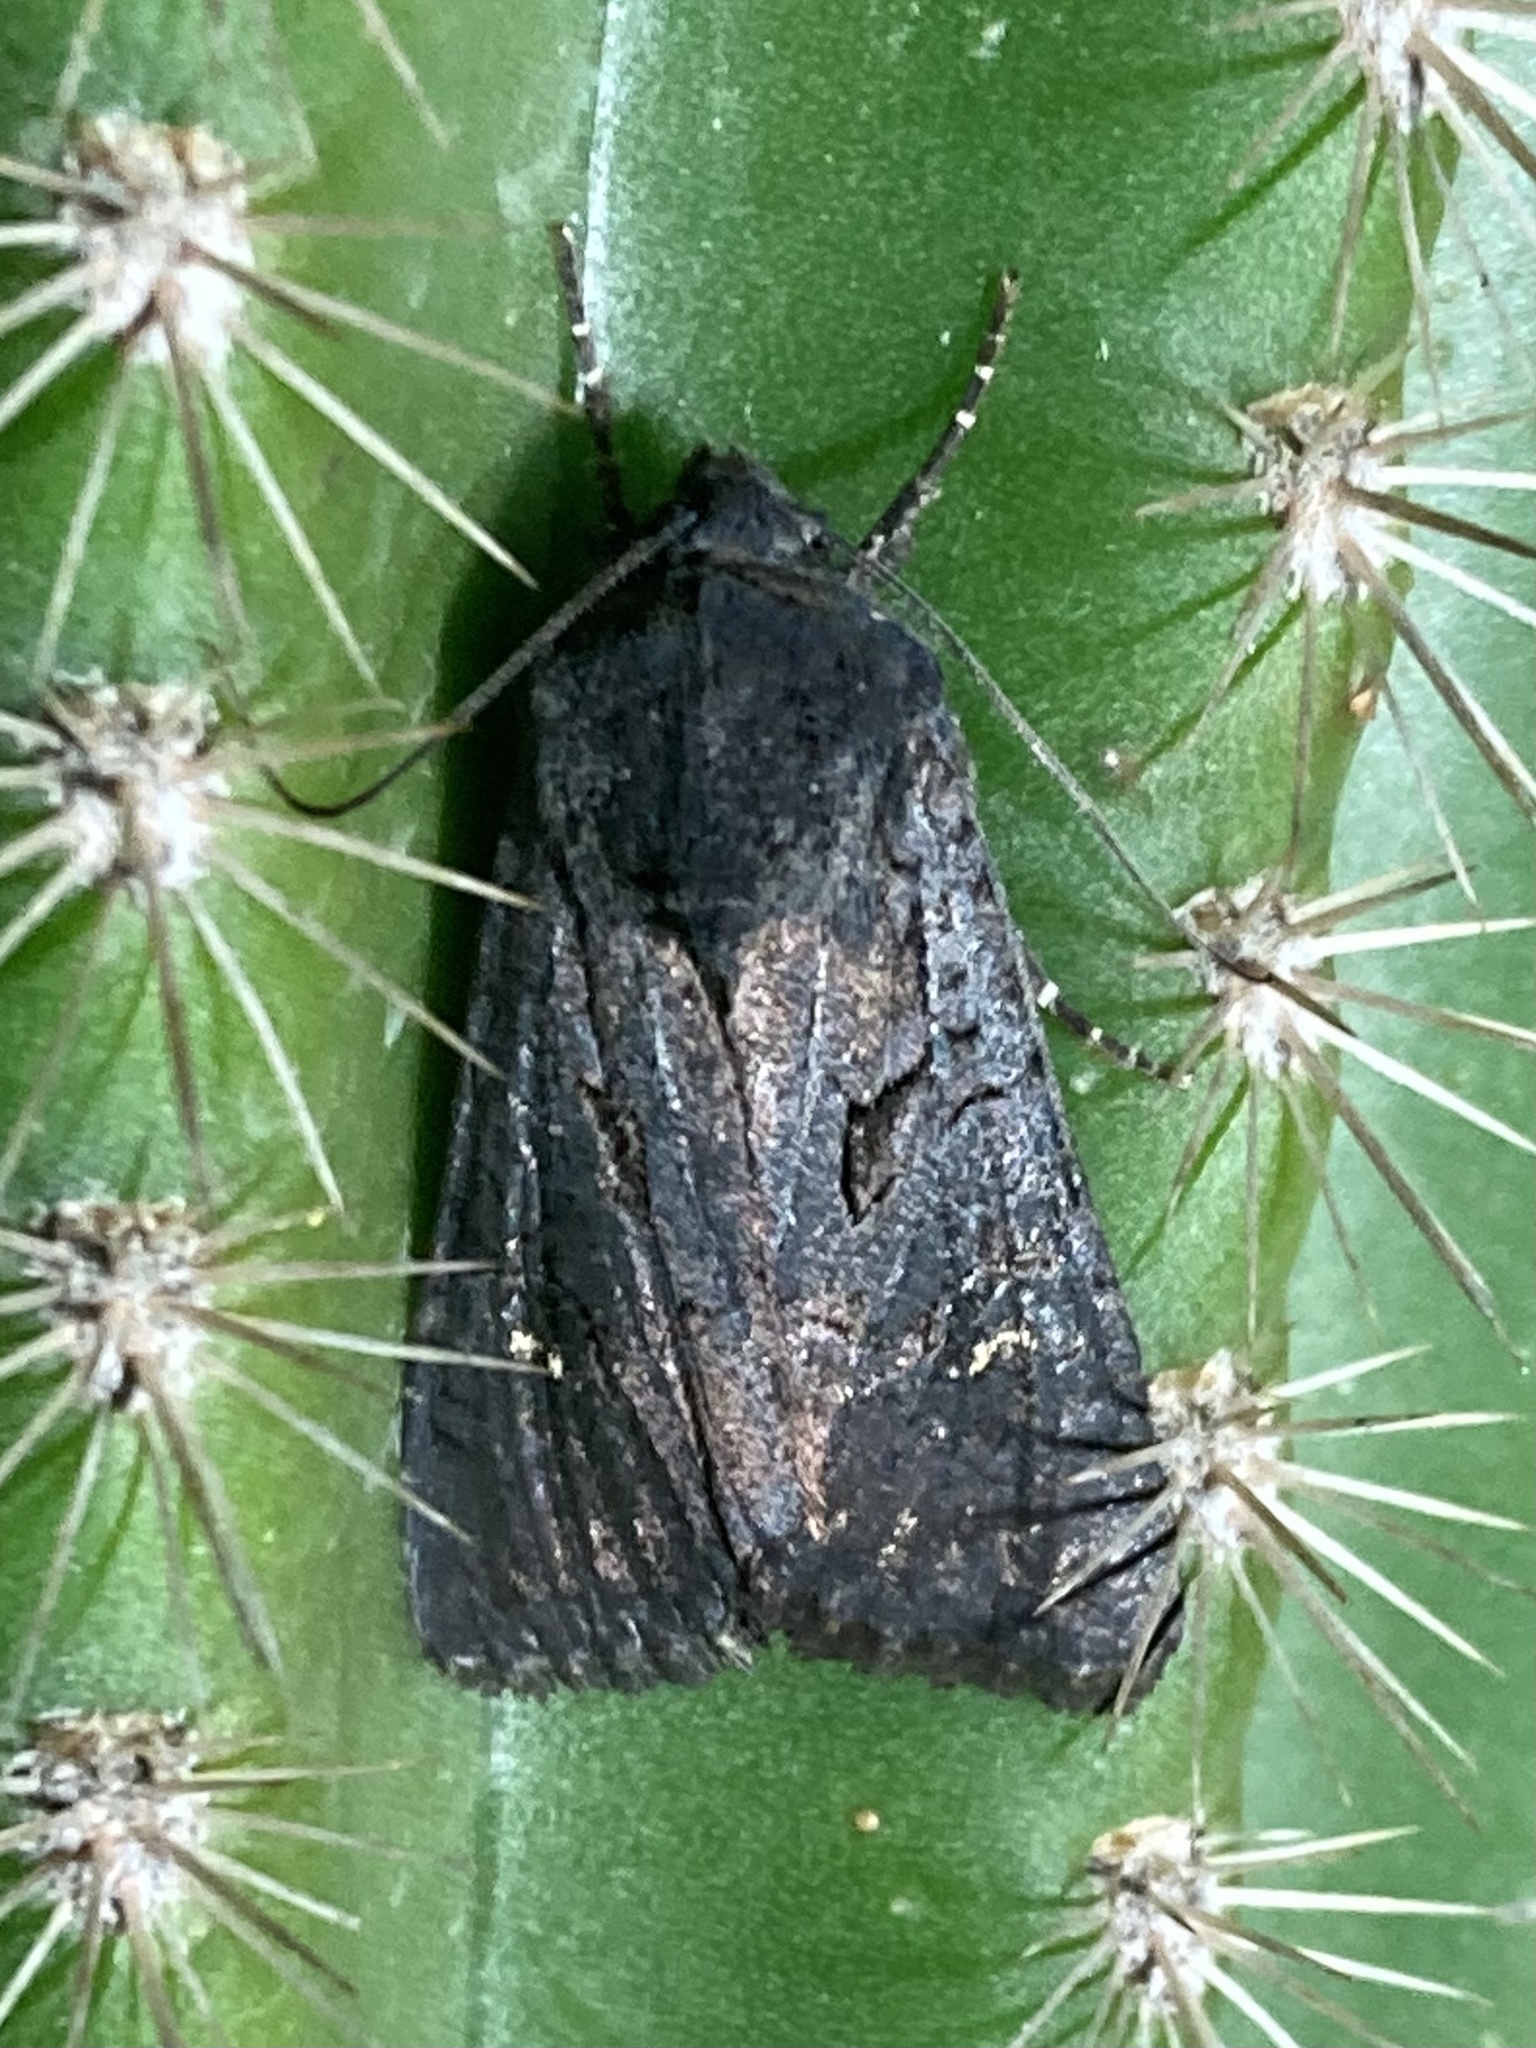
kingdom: Animalia
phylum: Arthropoda
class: Insecta
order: Lepidoptera
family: Noctuidae
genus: Aporophyla
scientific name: Aporophyla nigra
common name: Black rustic
